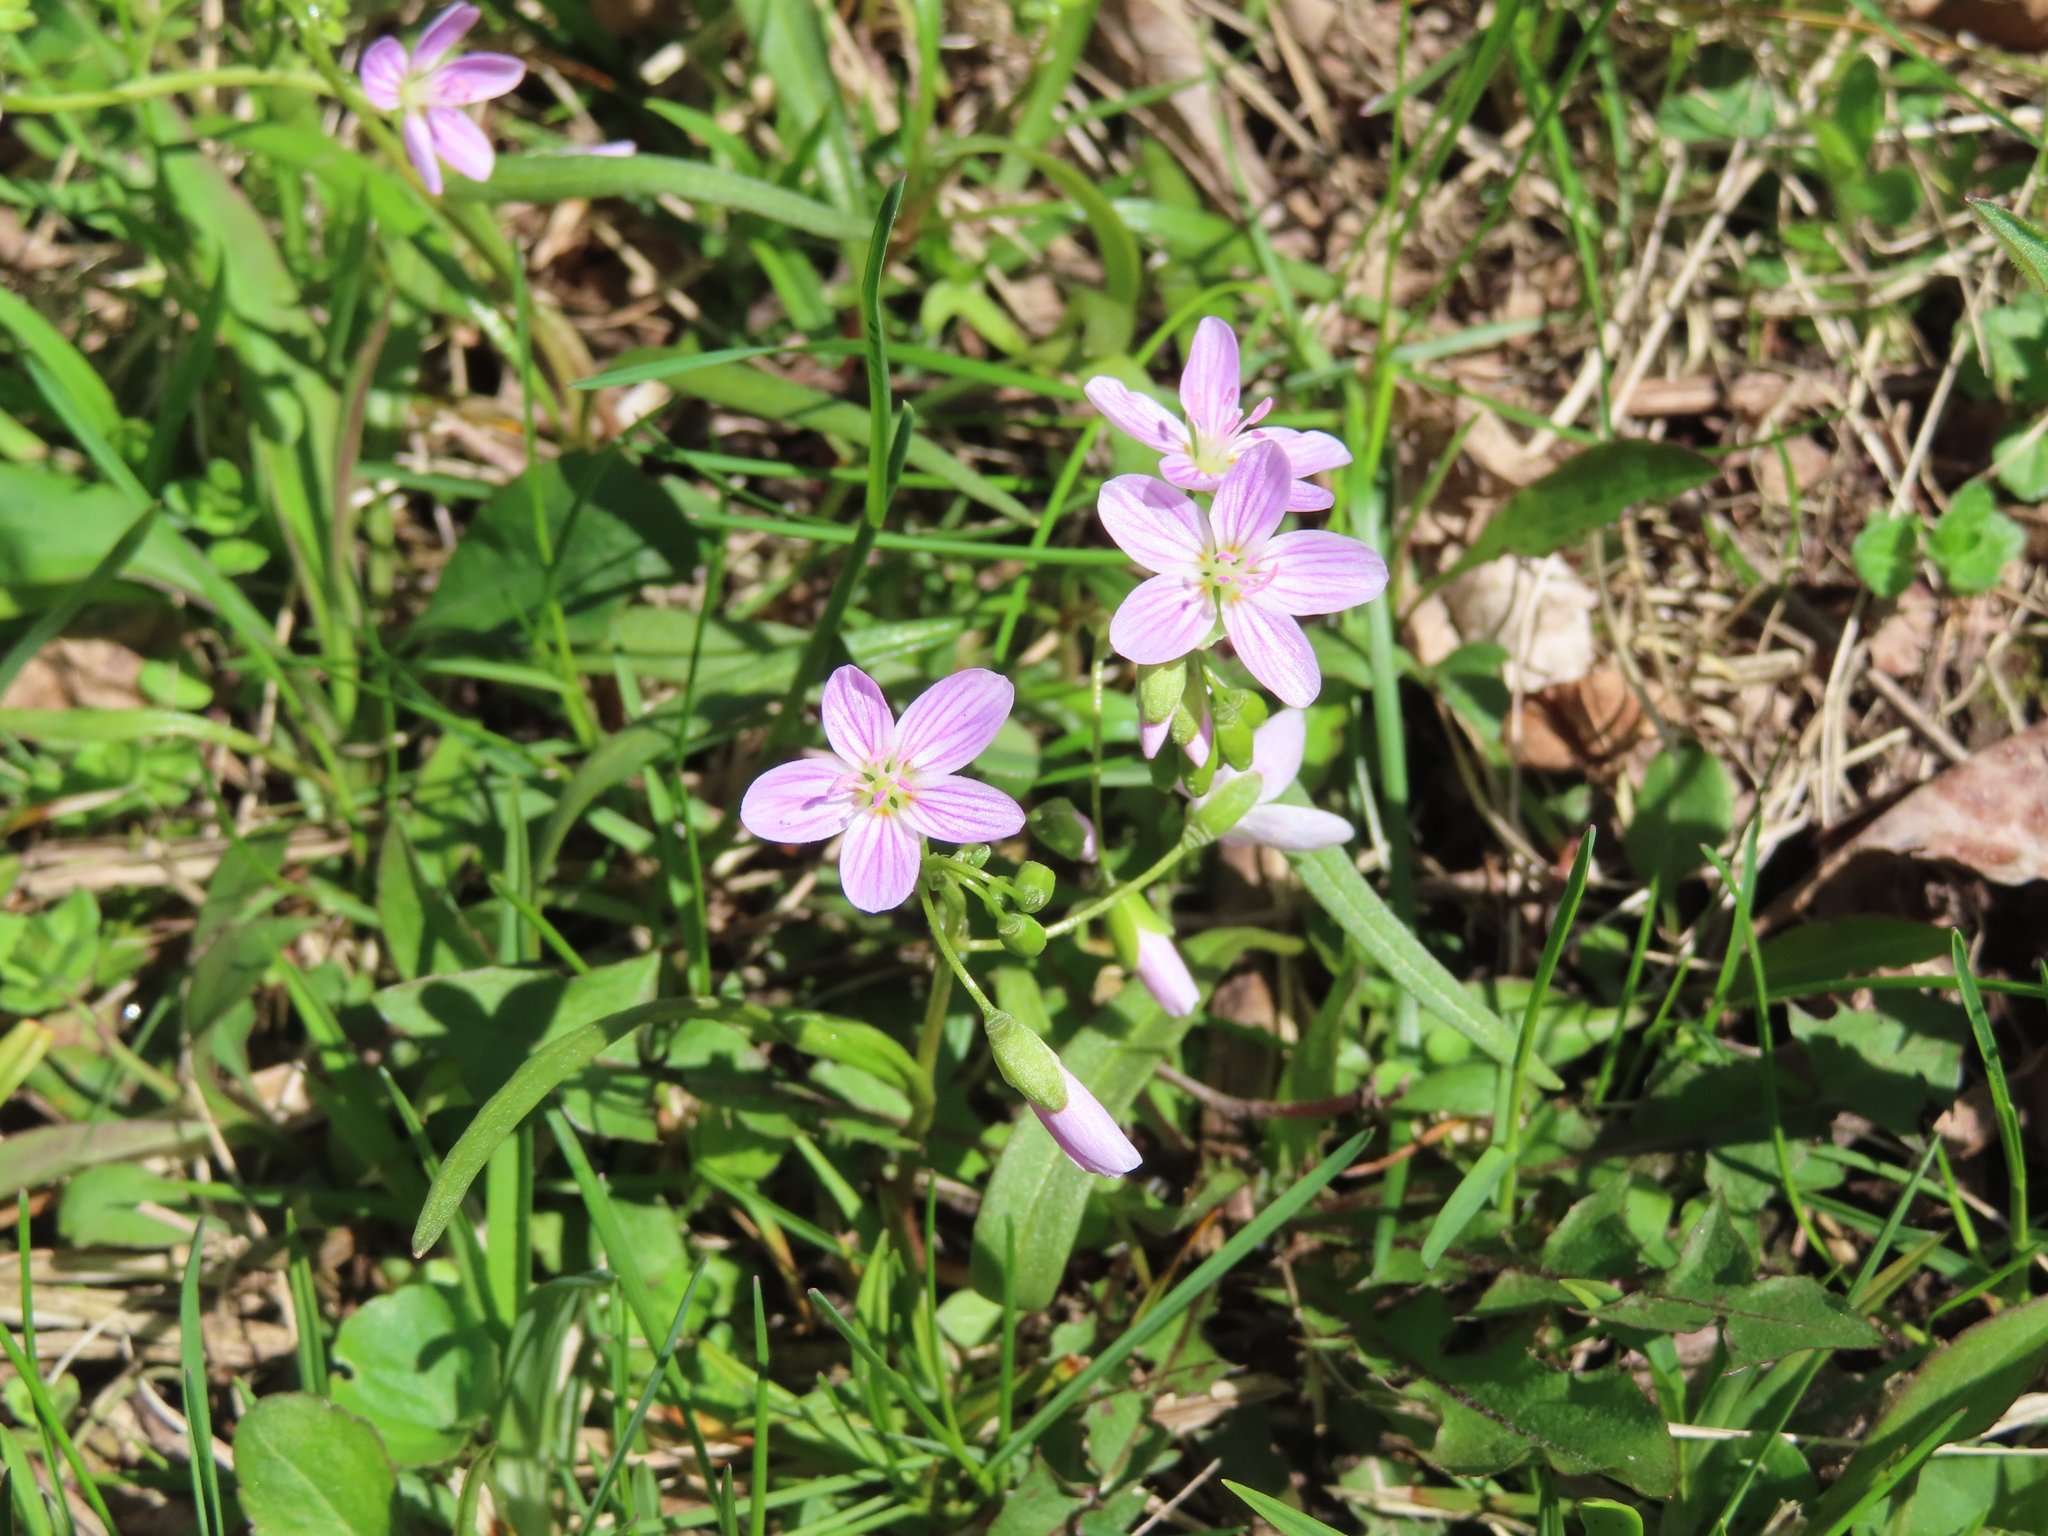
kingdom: Plantae
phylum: Tracheophyta
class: Magnoliopsida
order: Caryophyllales
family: Montiaceae
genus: Claytonia
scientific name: Claytonia virginica
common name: Virginia springbeauty
